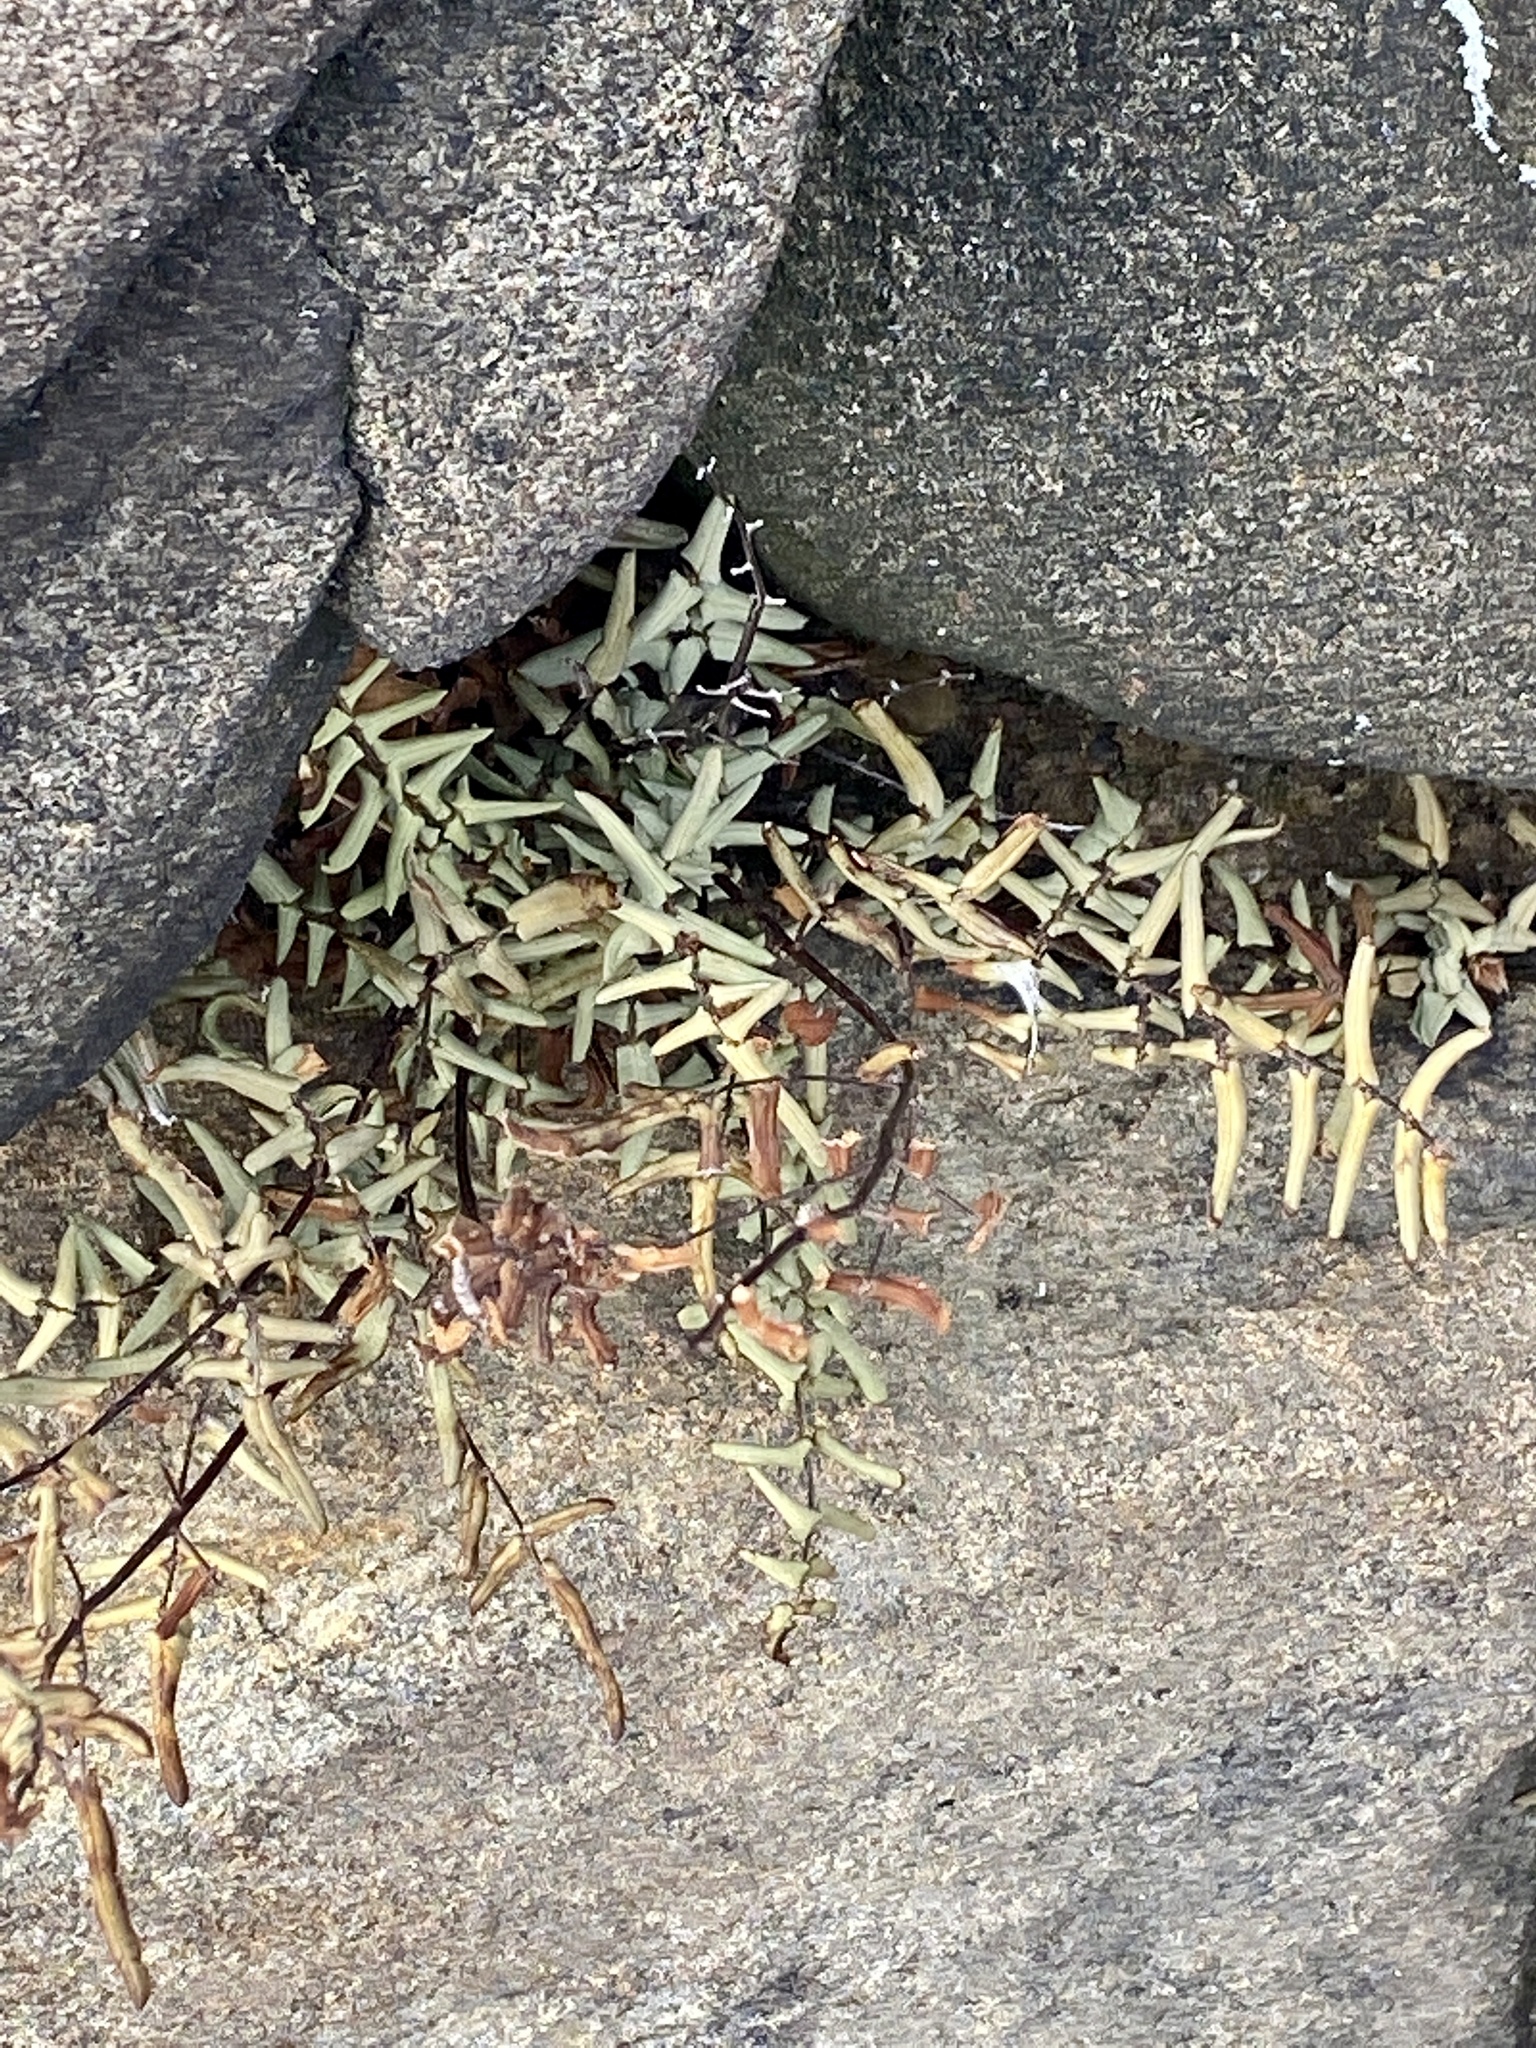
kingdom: Plantae
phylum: Tracheophyta
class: Polypodiopsida
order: Polypodiales
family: Pteridaceae
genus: Pellaea
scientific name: Pellaea atropurpurea
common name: Hairy cliffbrake
